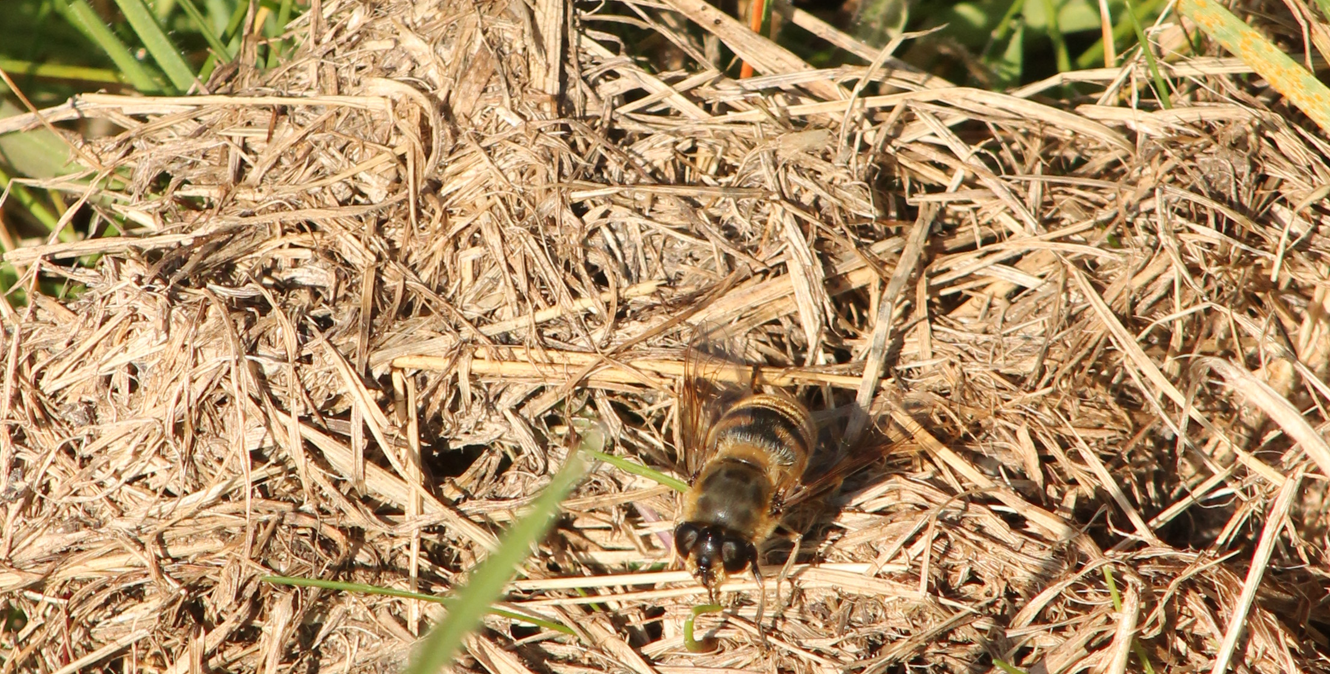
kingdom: Animalia
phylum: Arthropoda
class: Insecta
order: Diptera
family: Syrphidae
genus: Eristalis
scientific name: Eristalis tenax
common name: Drone fly
